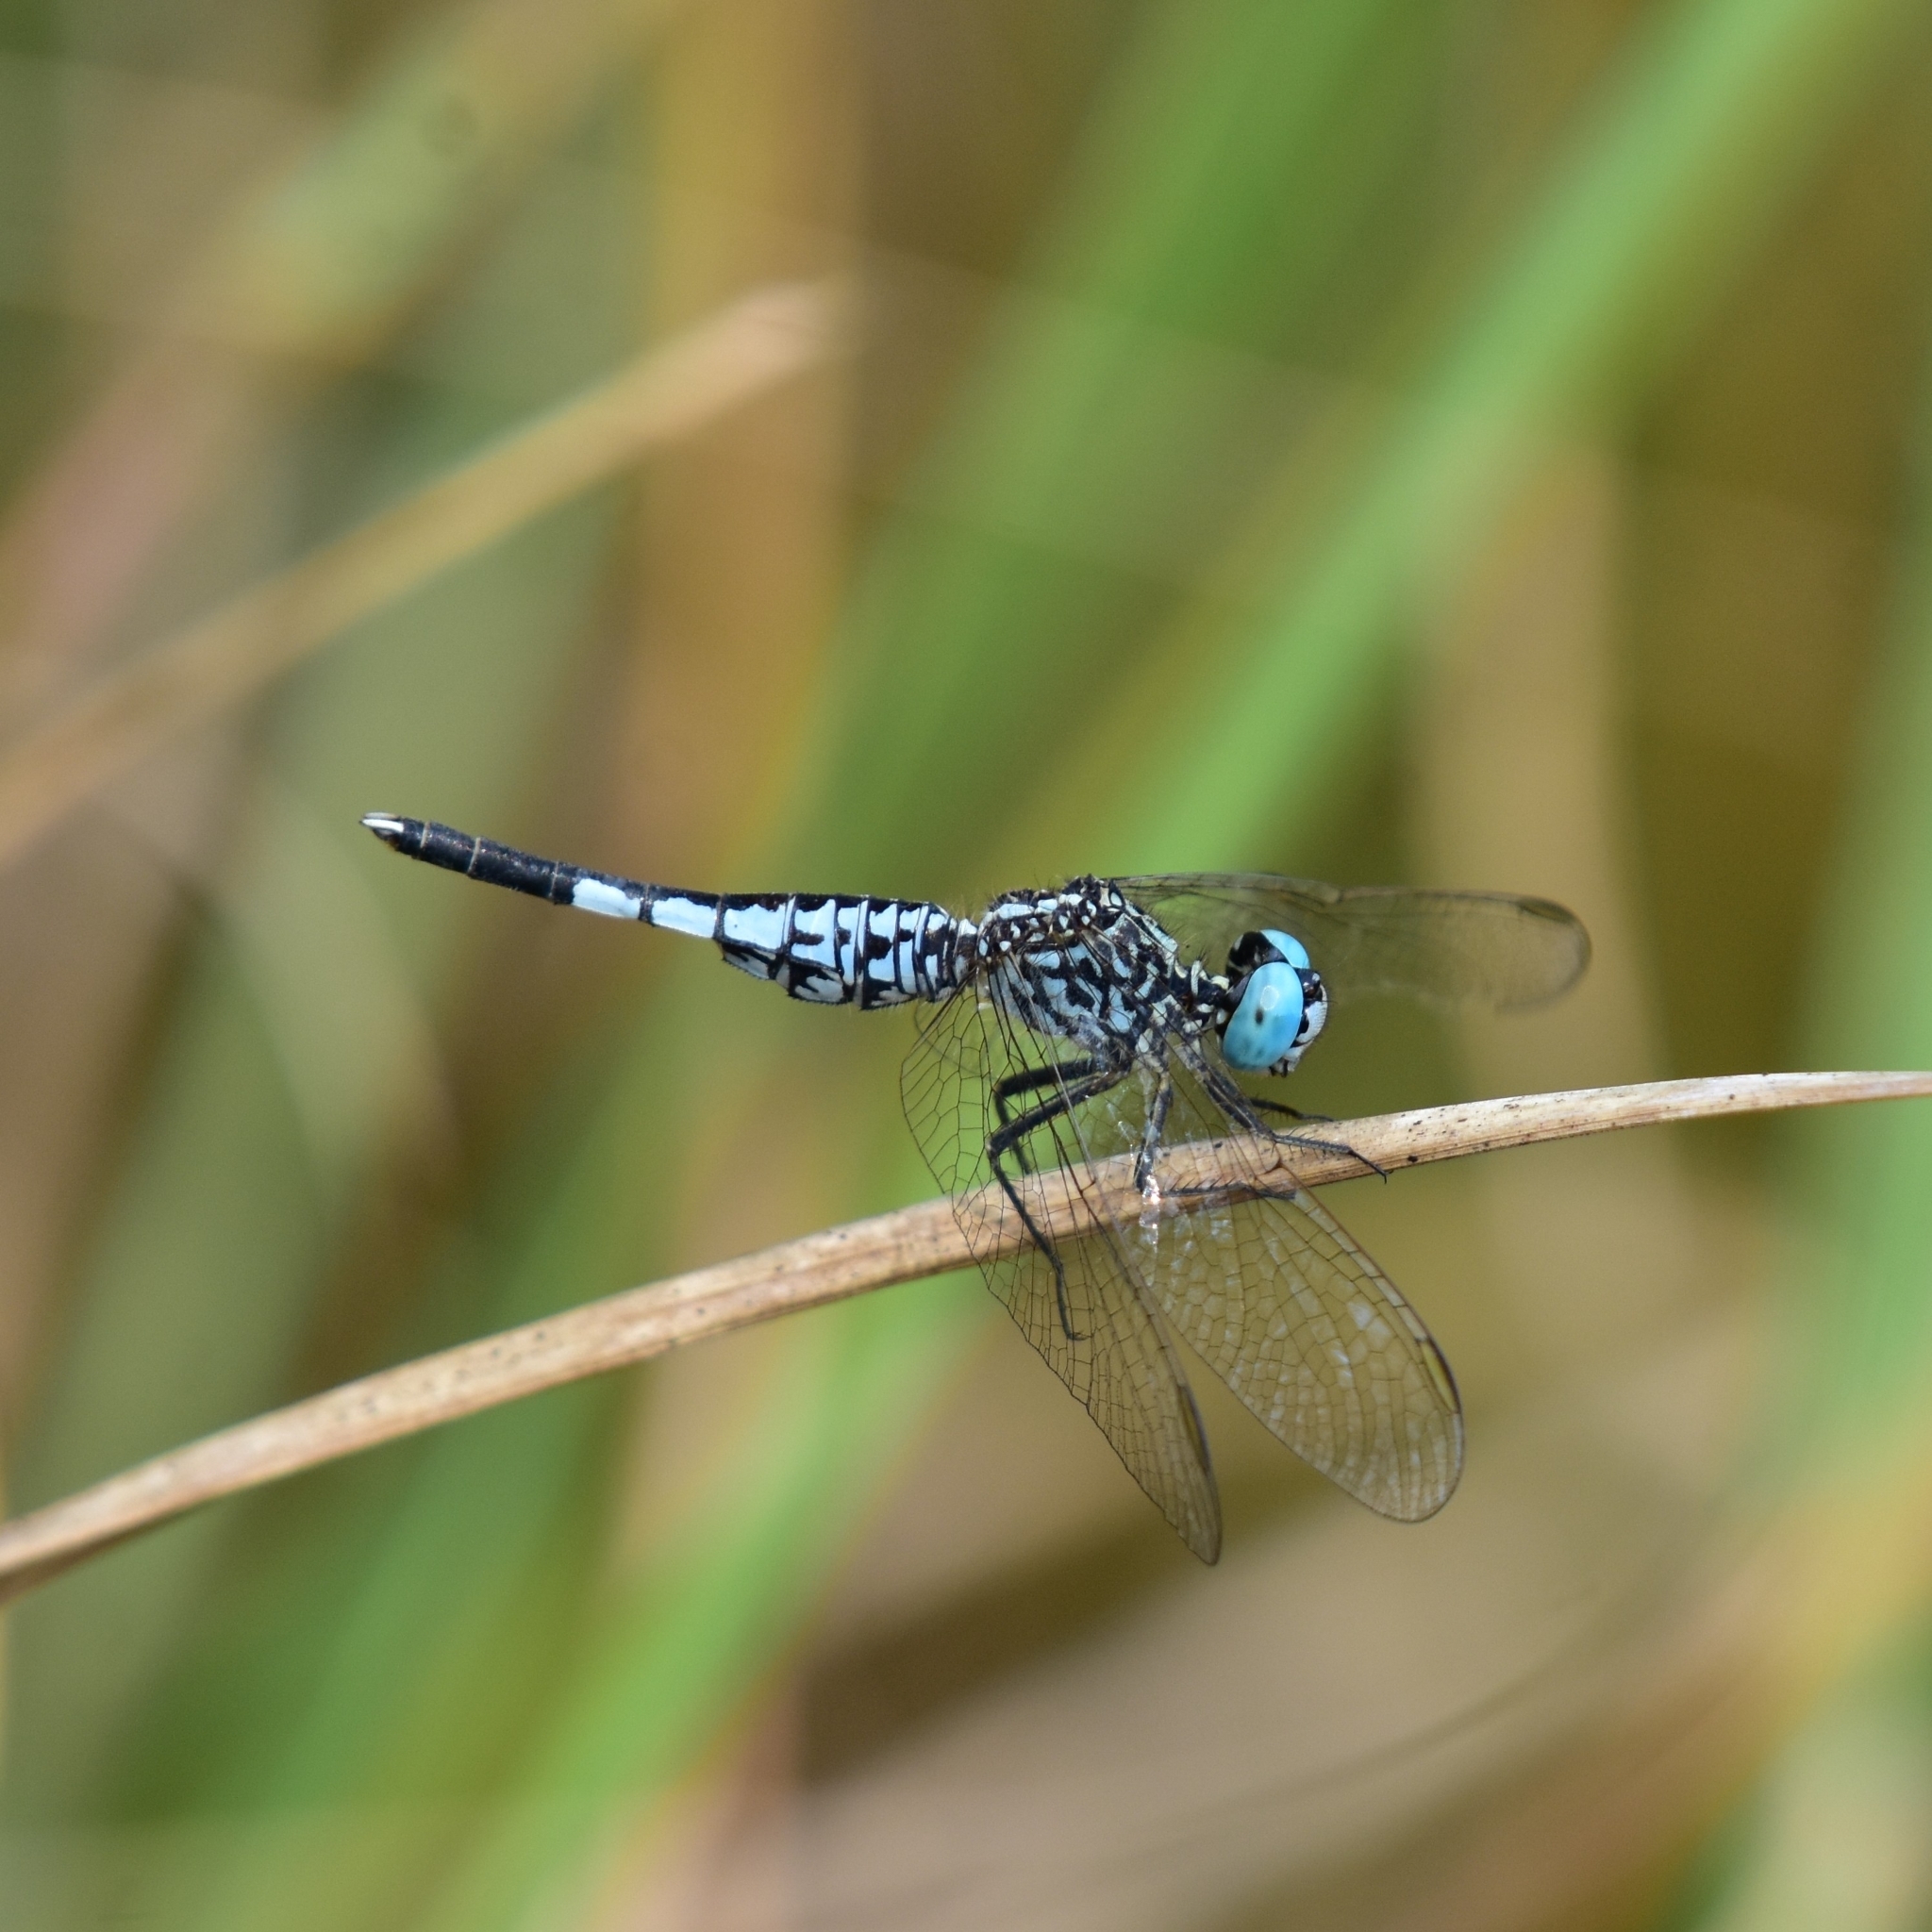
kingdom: Animalia
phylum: Arthropoda
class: Insecta
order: Odonata
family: Libellulidae
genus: Acisoma
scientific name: Acisoma panorpoides
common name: Asian pintail
